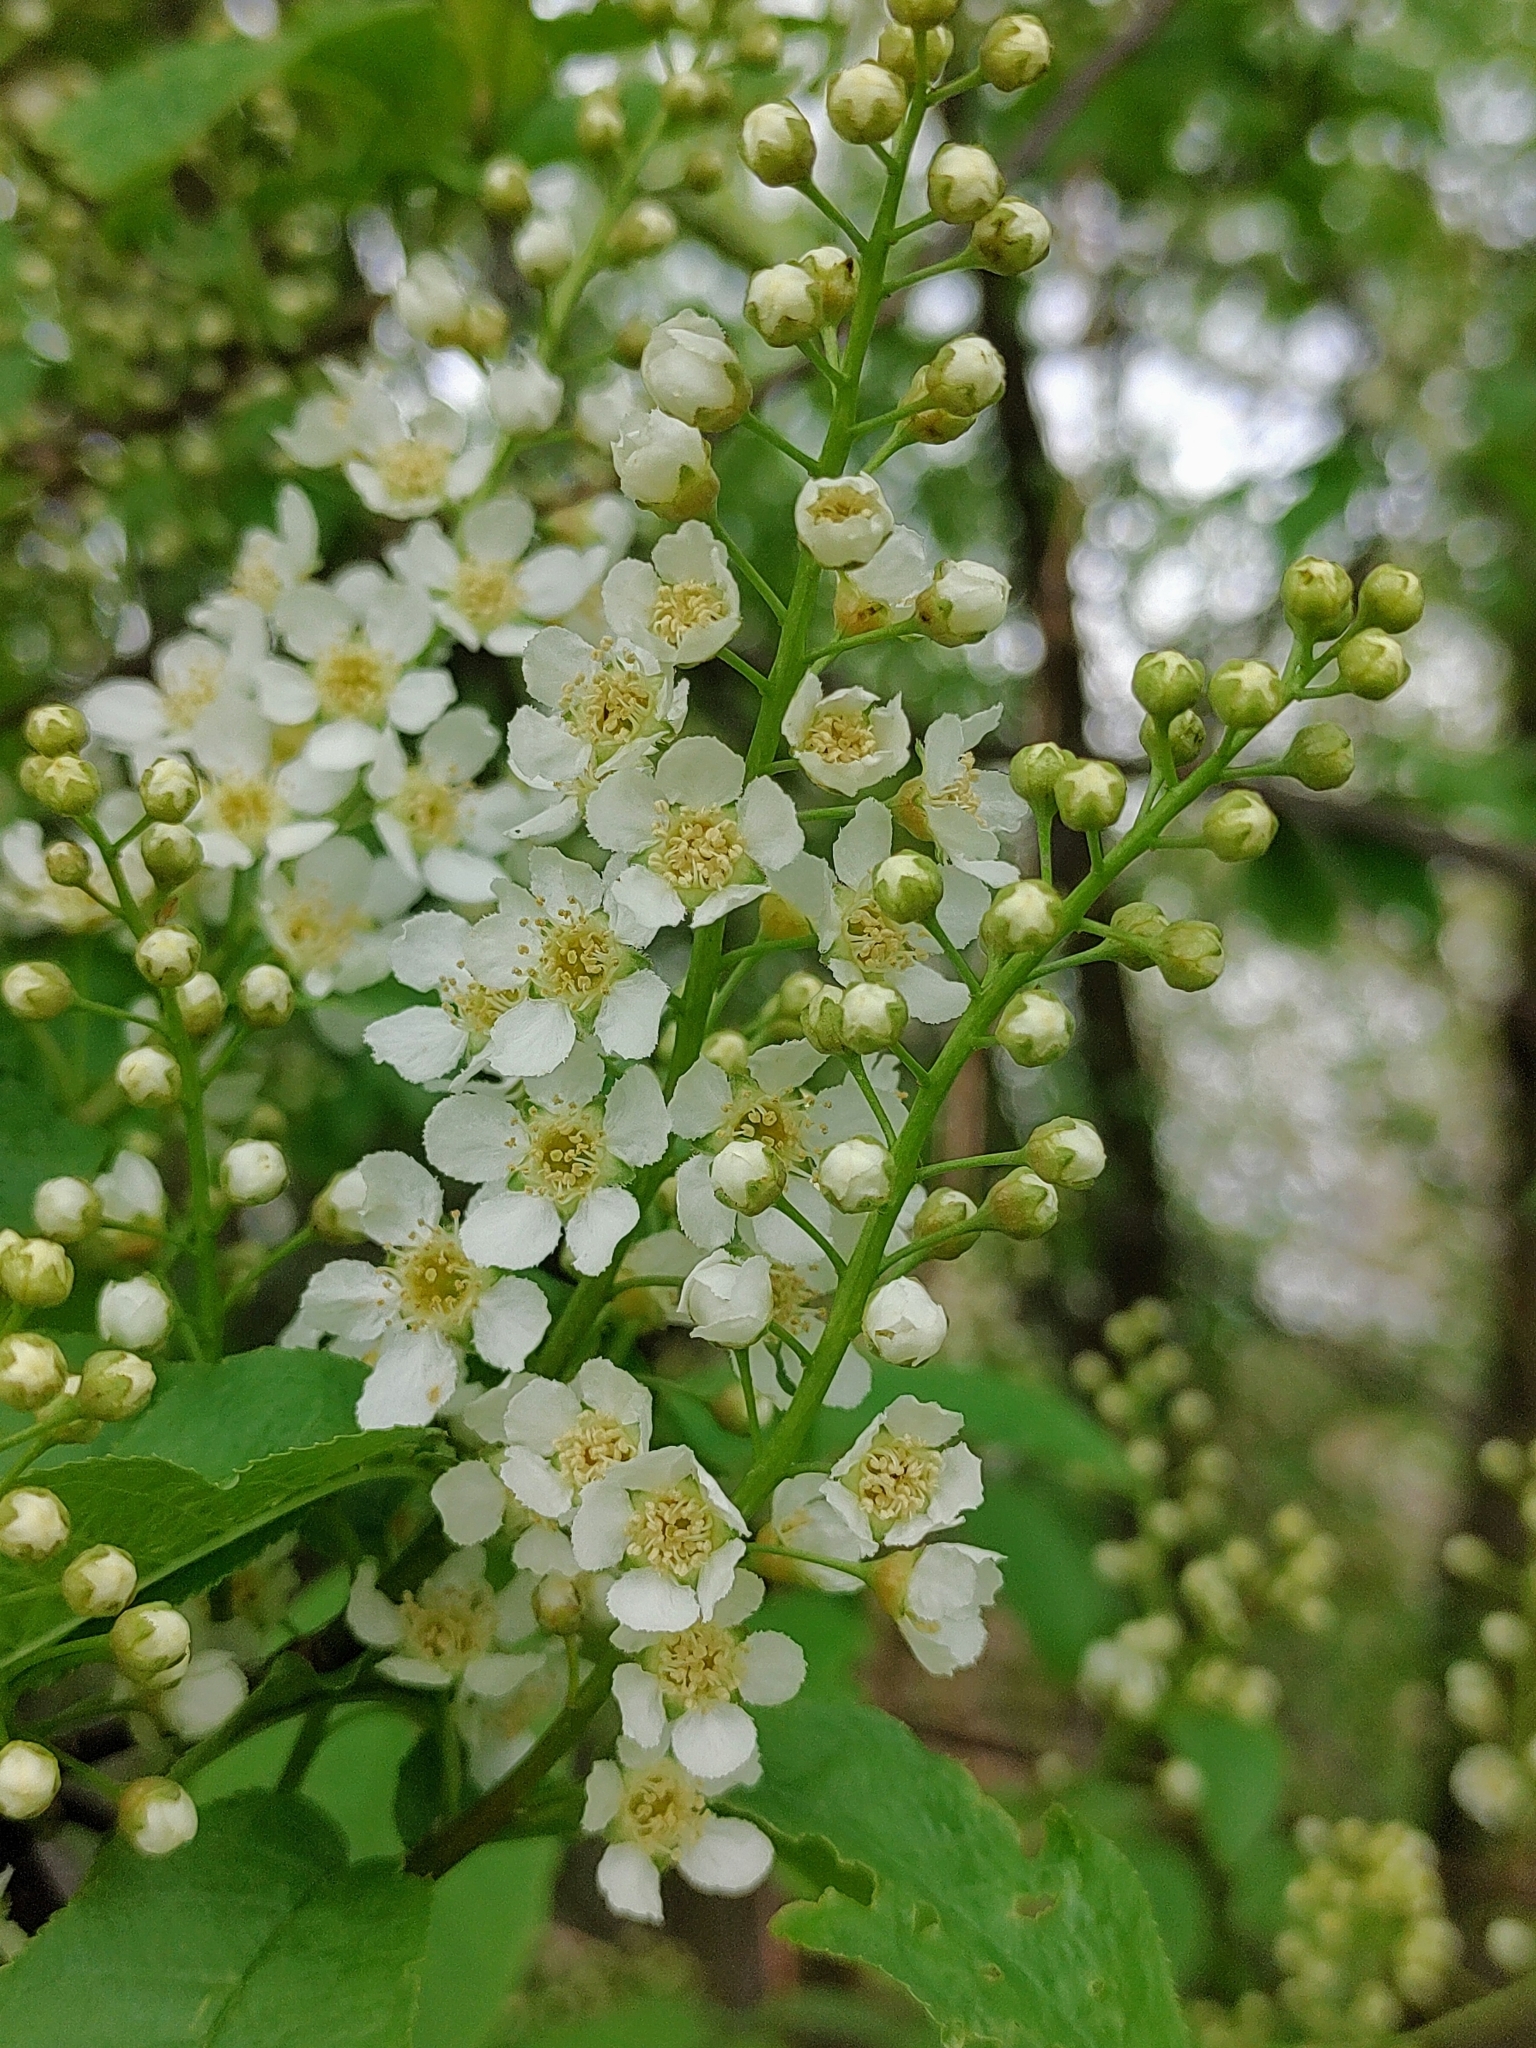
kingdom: Plantae
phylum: Tracheophyta
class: Magnoliopsida
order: Rosales
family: Rosaceae
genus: Prunus
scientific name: Prunus padus
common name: Bird cherry
